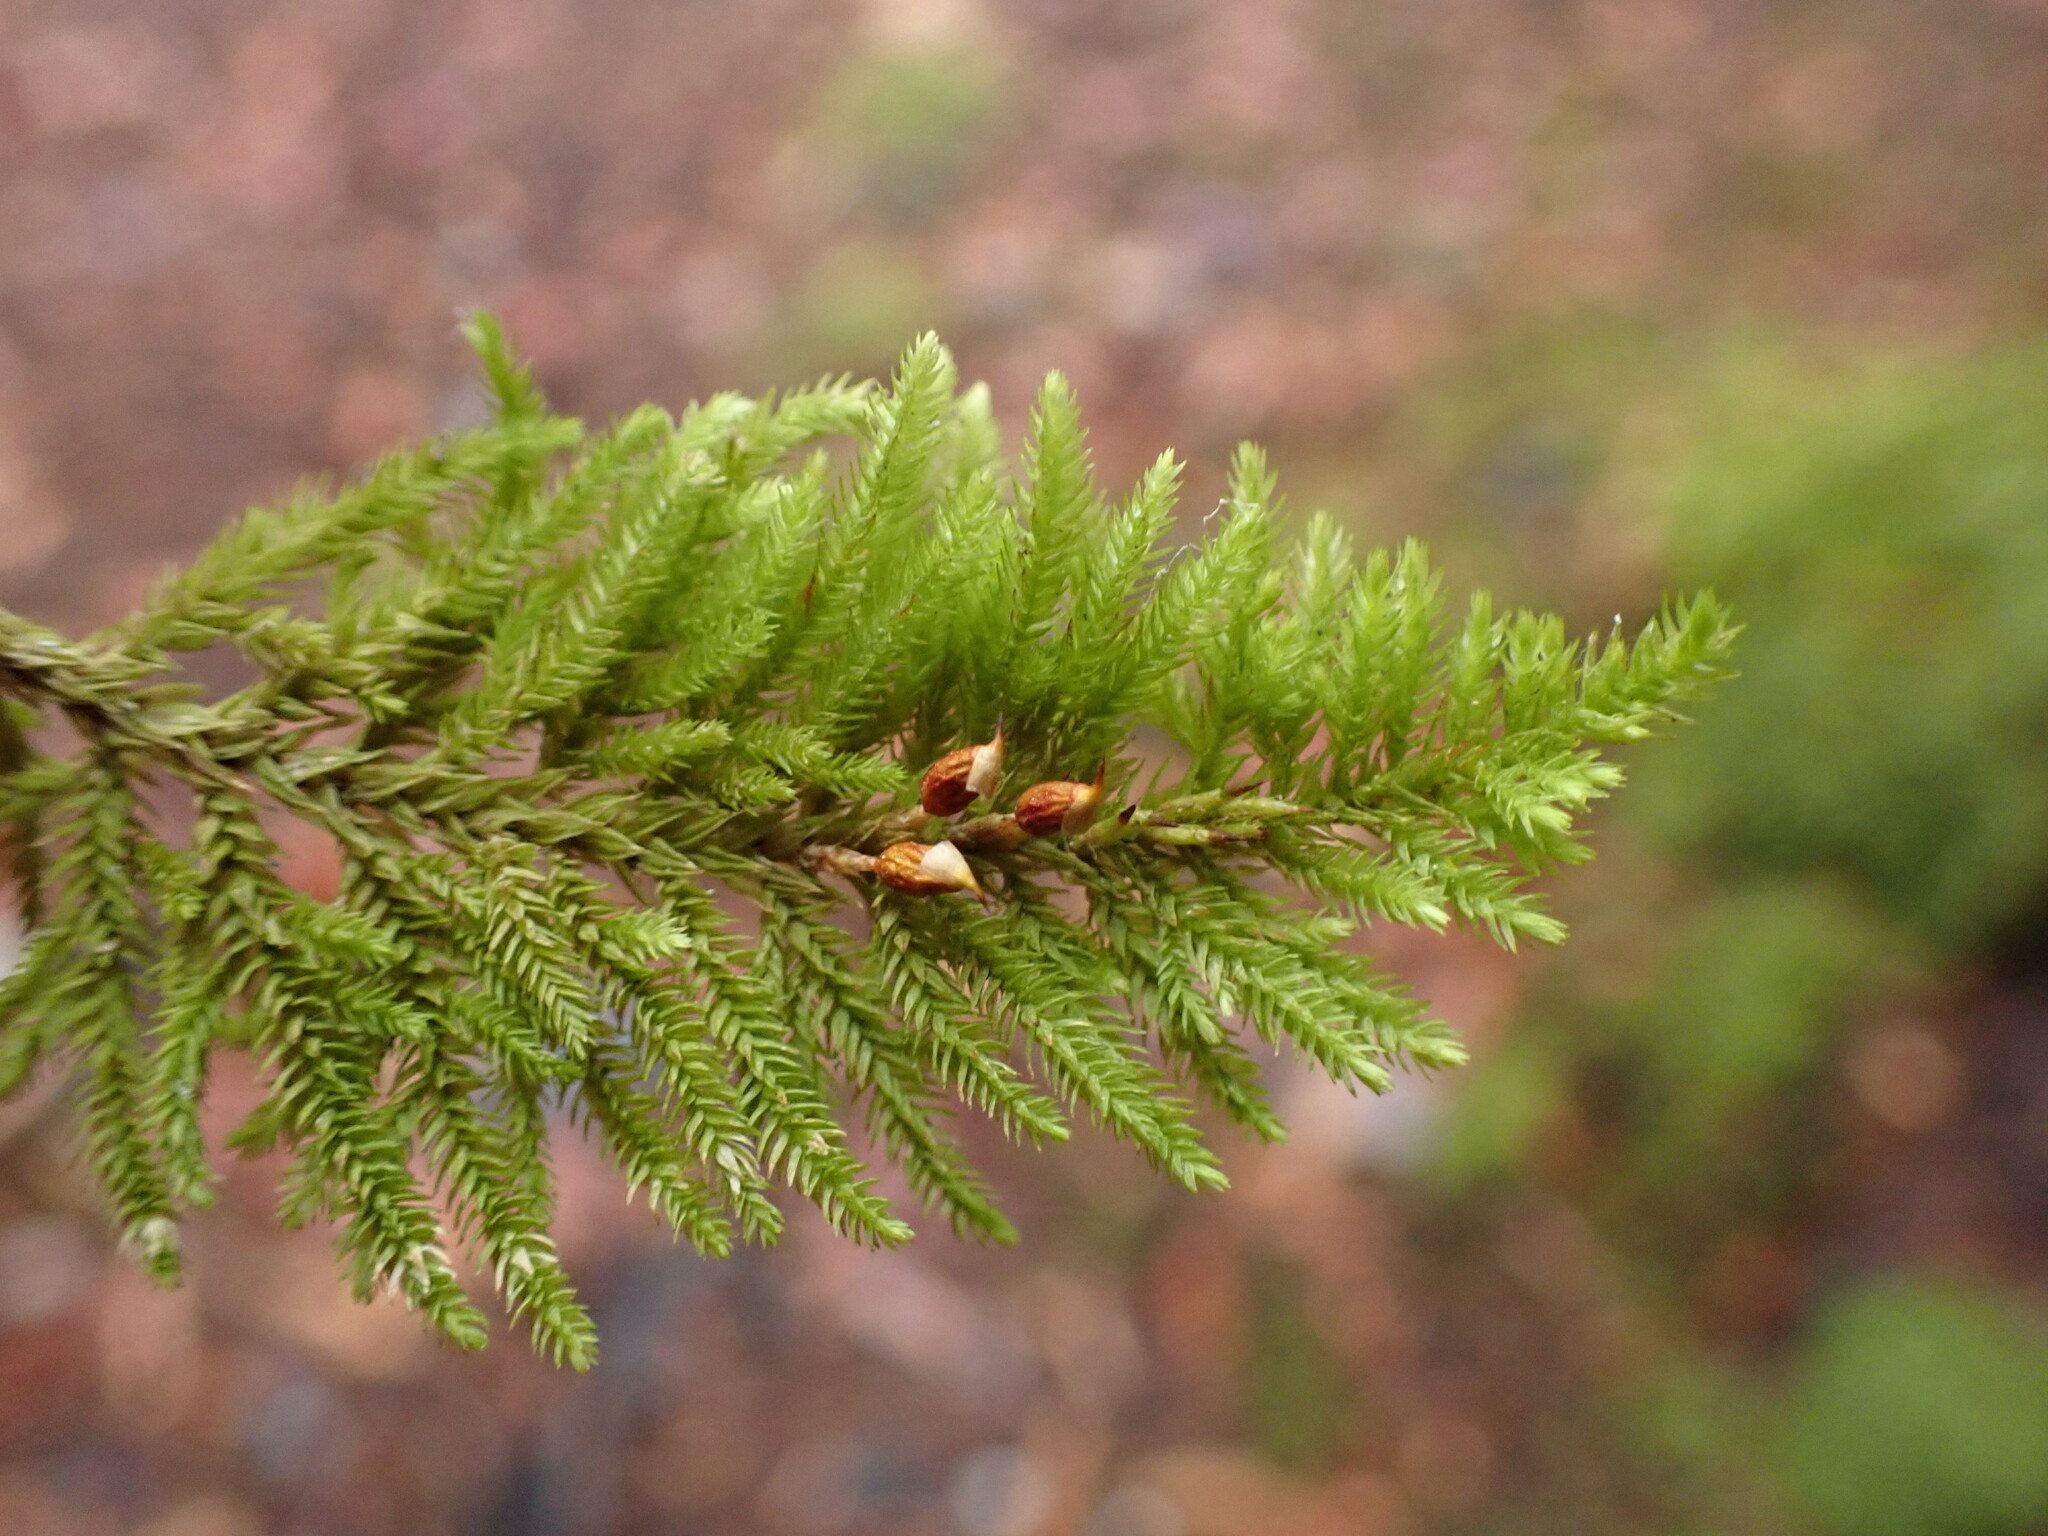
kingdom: Plantae
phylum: Bryophyta
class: Bryopsida
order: Hypnales
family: Cryphaeaceae
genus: Dendroalsia
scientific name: Dendroalsia abietina
